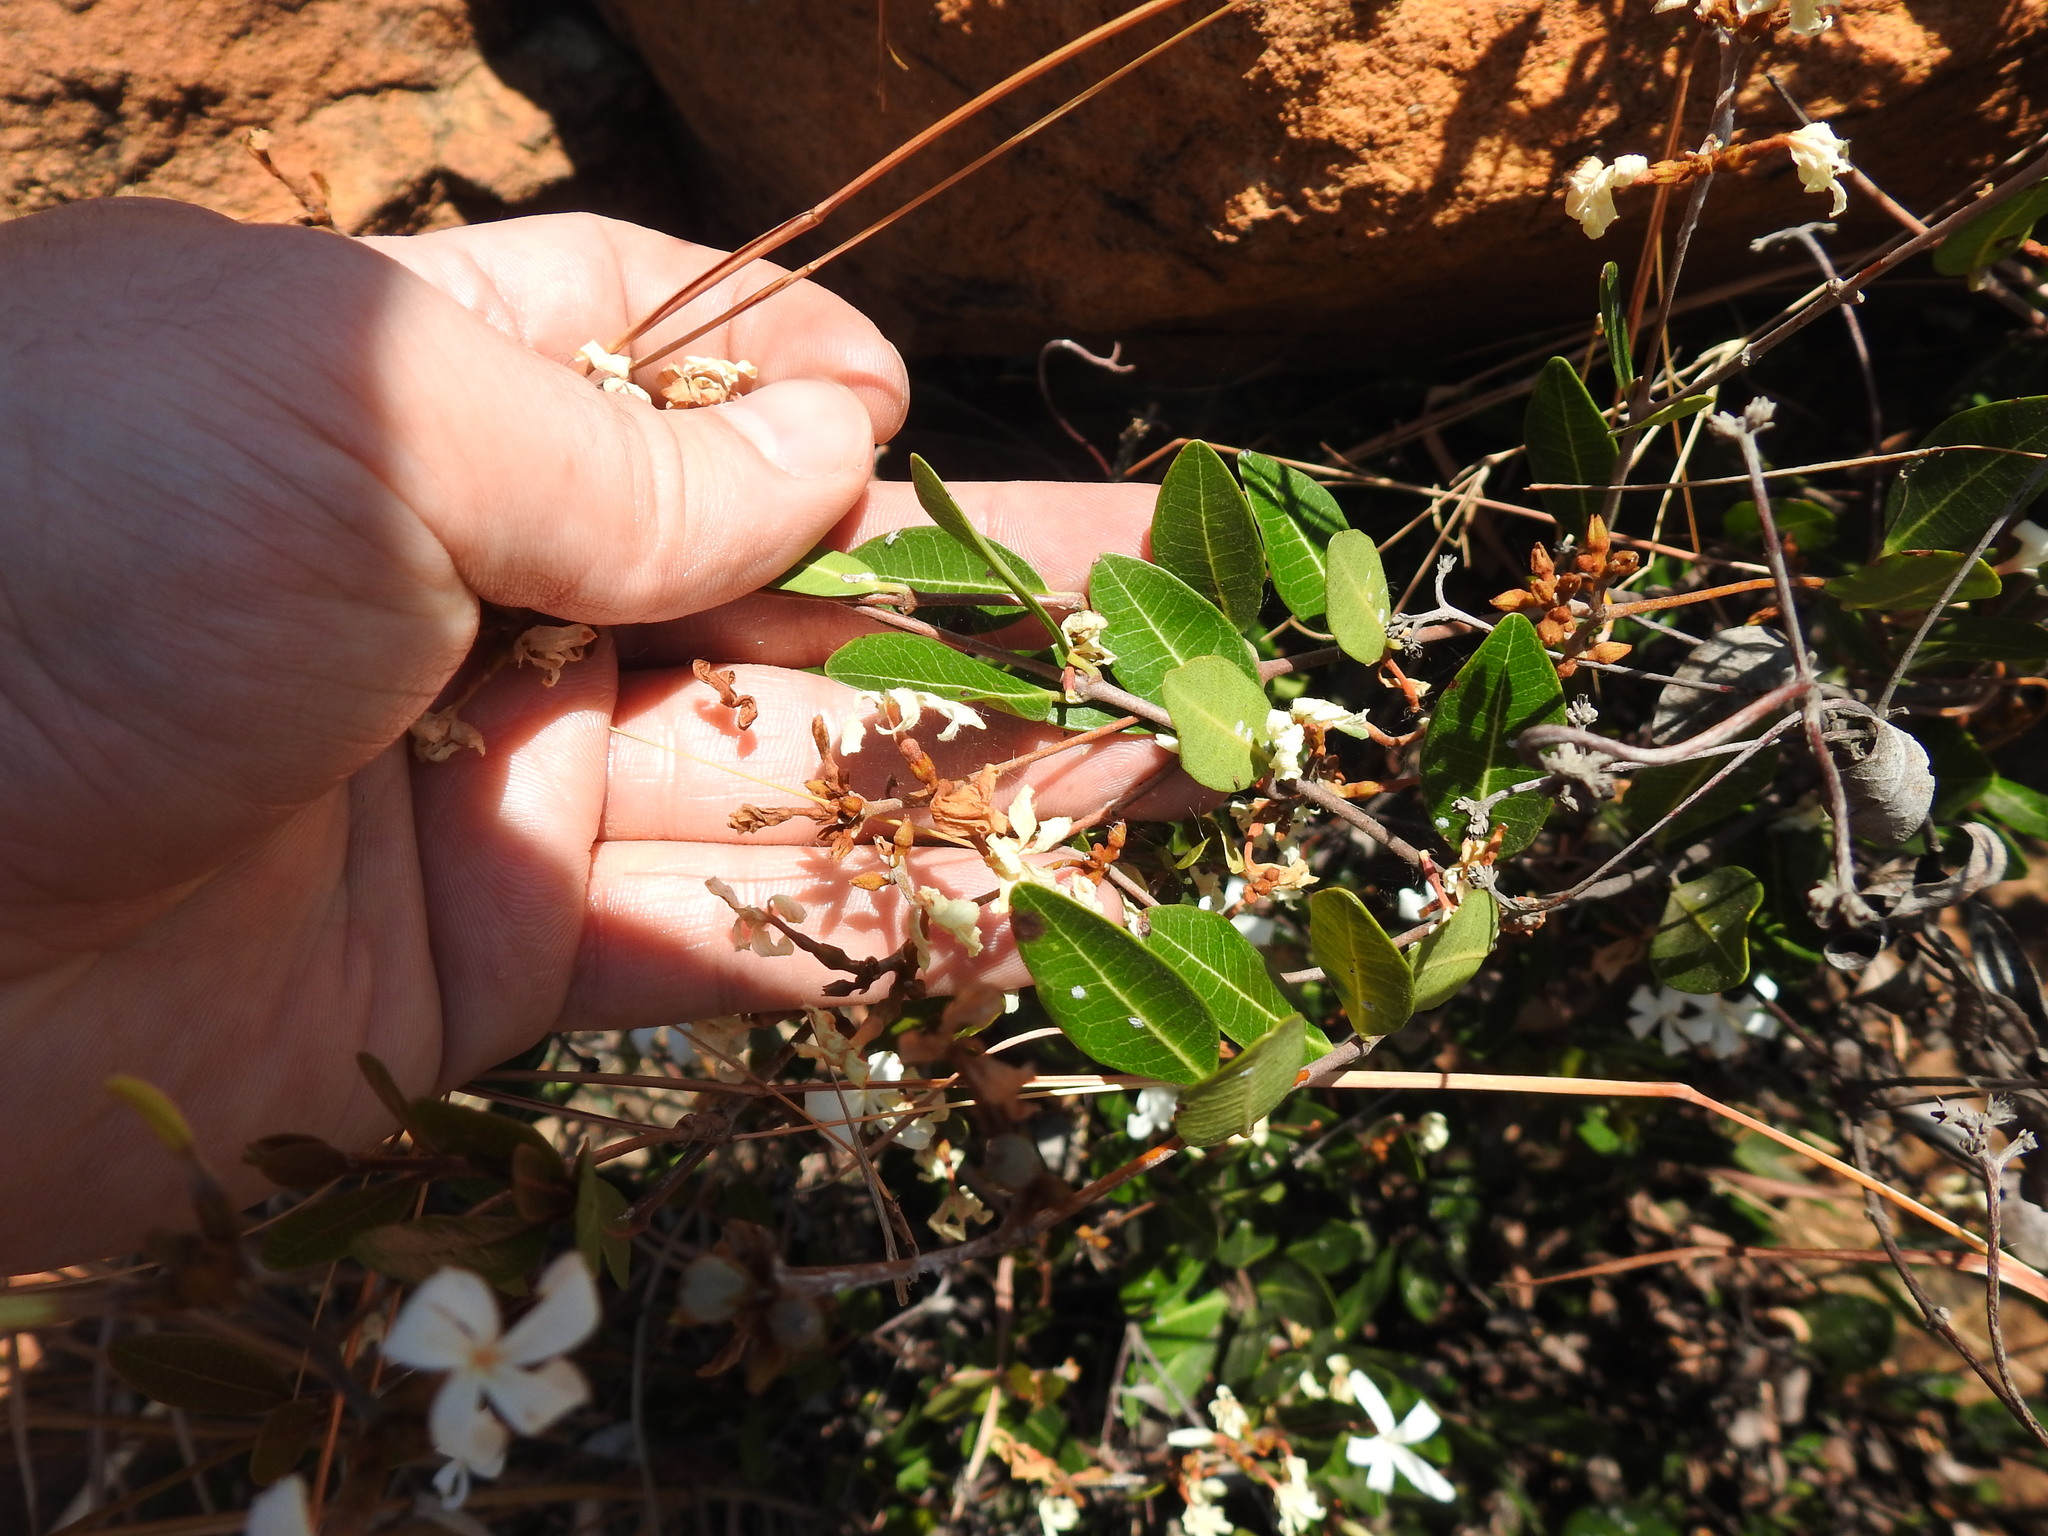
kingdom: Plantae
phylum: Tracheophyta
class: Magnoliopsida
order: Gentianales
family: Apocynaceae
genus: Ancylobothrys
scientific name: Ancylobothrys capensis
